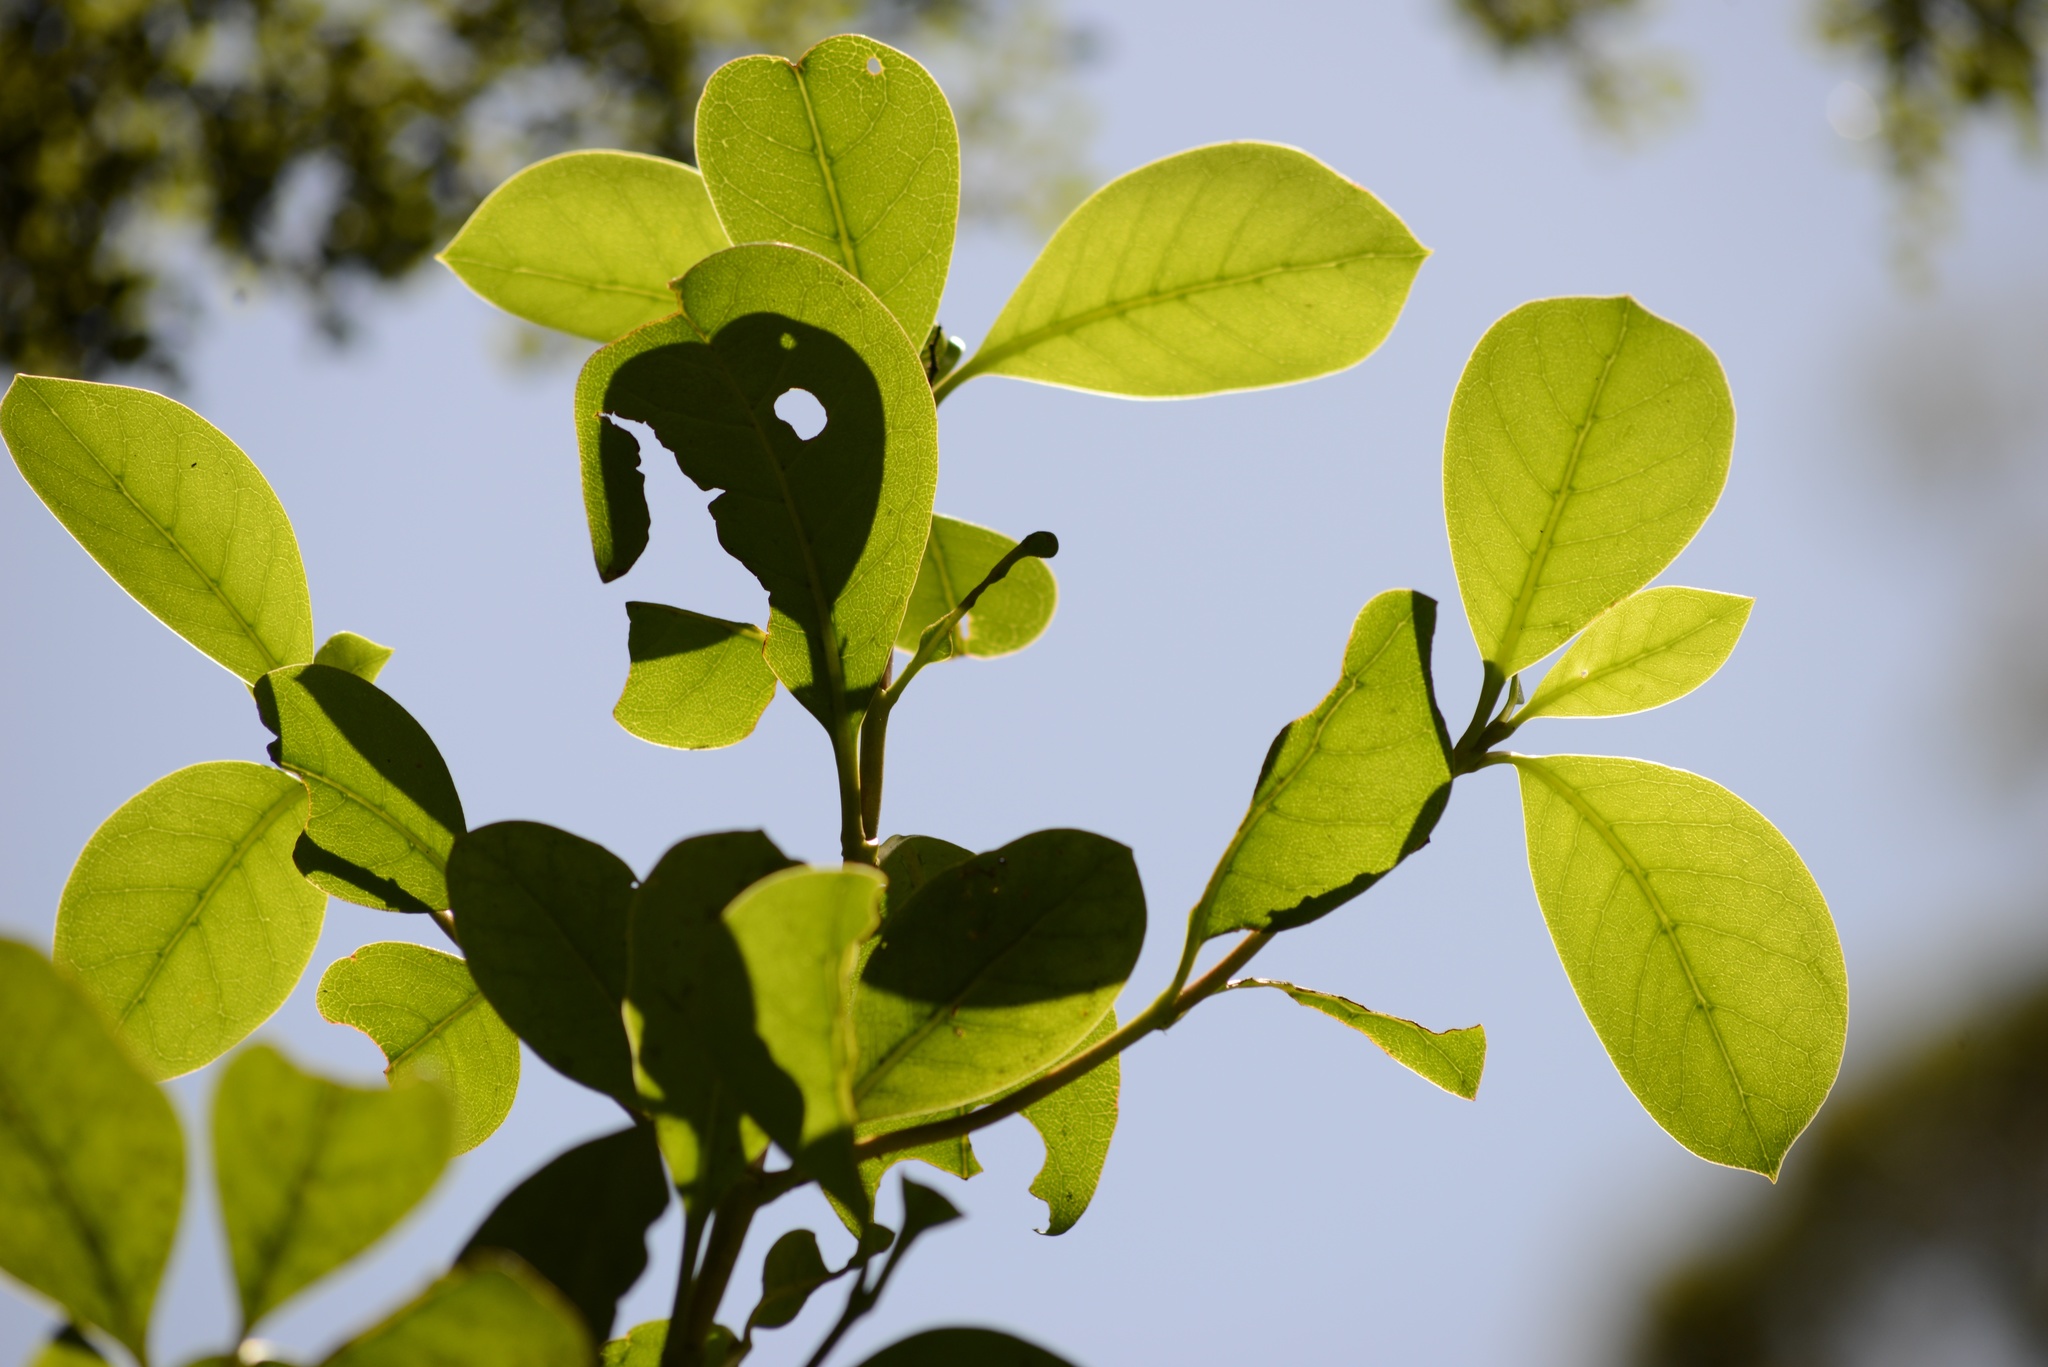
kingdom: Plantae
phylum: Tracheophyta
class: Magnoliopsida
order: Gentianales
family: Rubiaceae
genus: Coprosma
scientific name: Coprosma lucida
